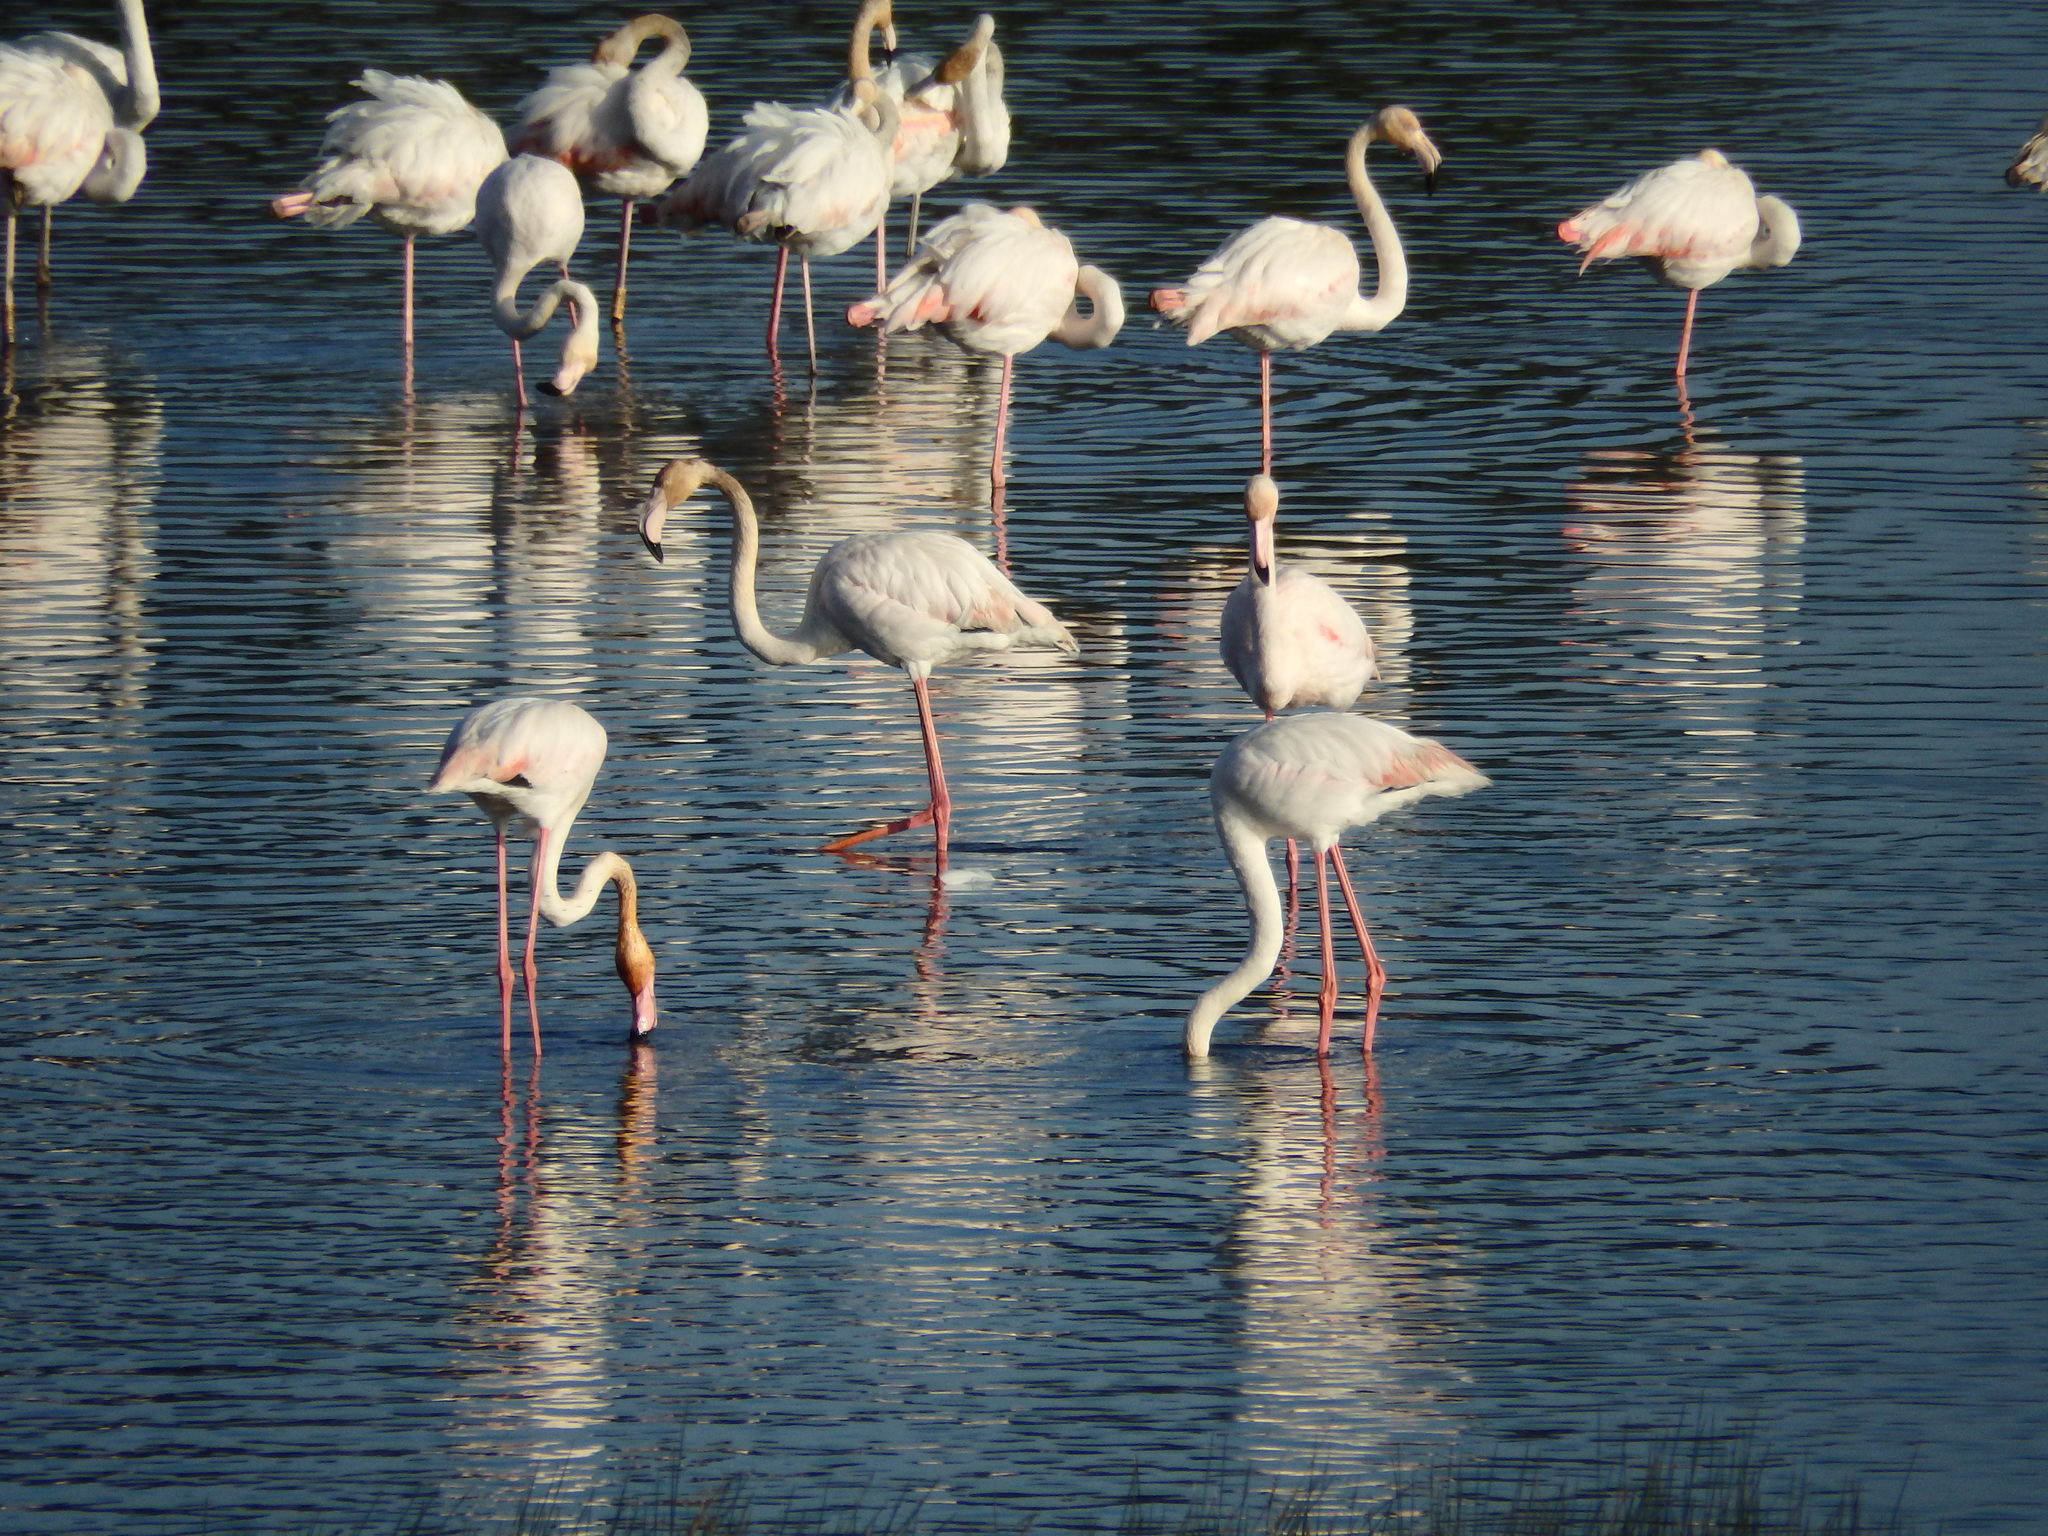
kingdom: Animalia
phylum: Chordata
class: Aves
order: Phoenicopteriformes
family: Phoenicopteridae
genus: Phoenicopterus
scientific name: Phoenicopterus roseus
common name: Greater flamingo
